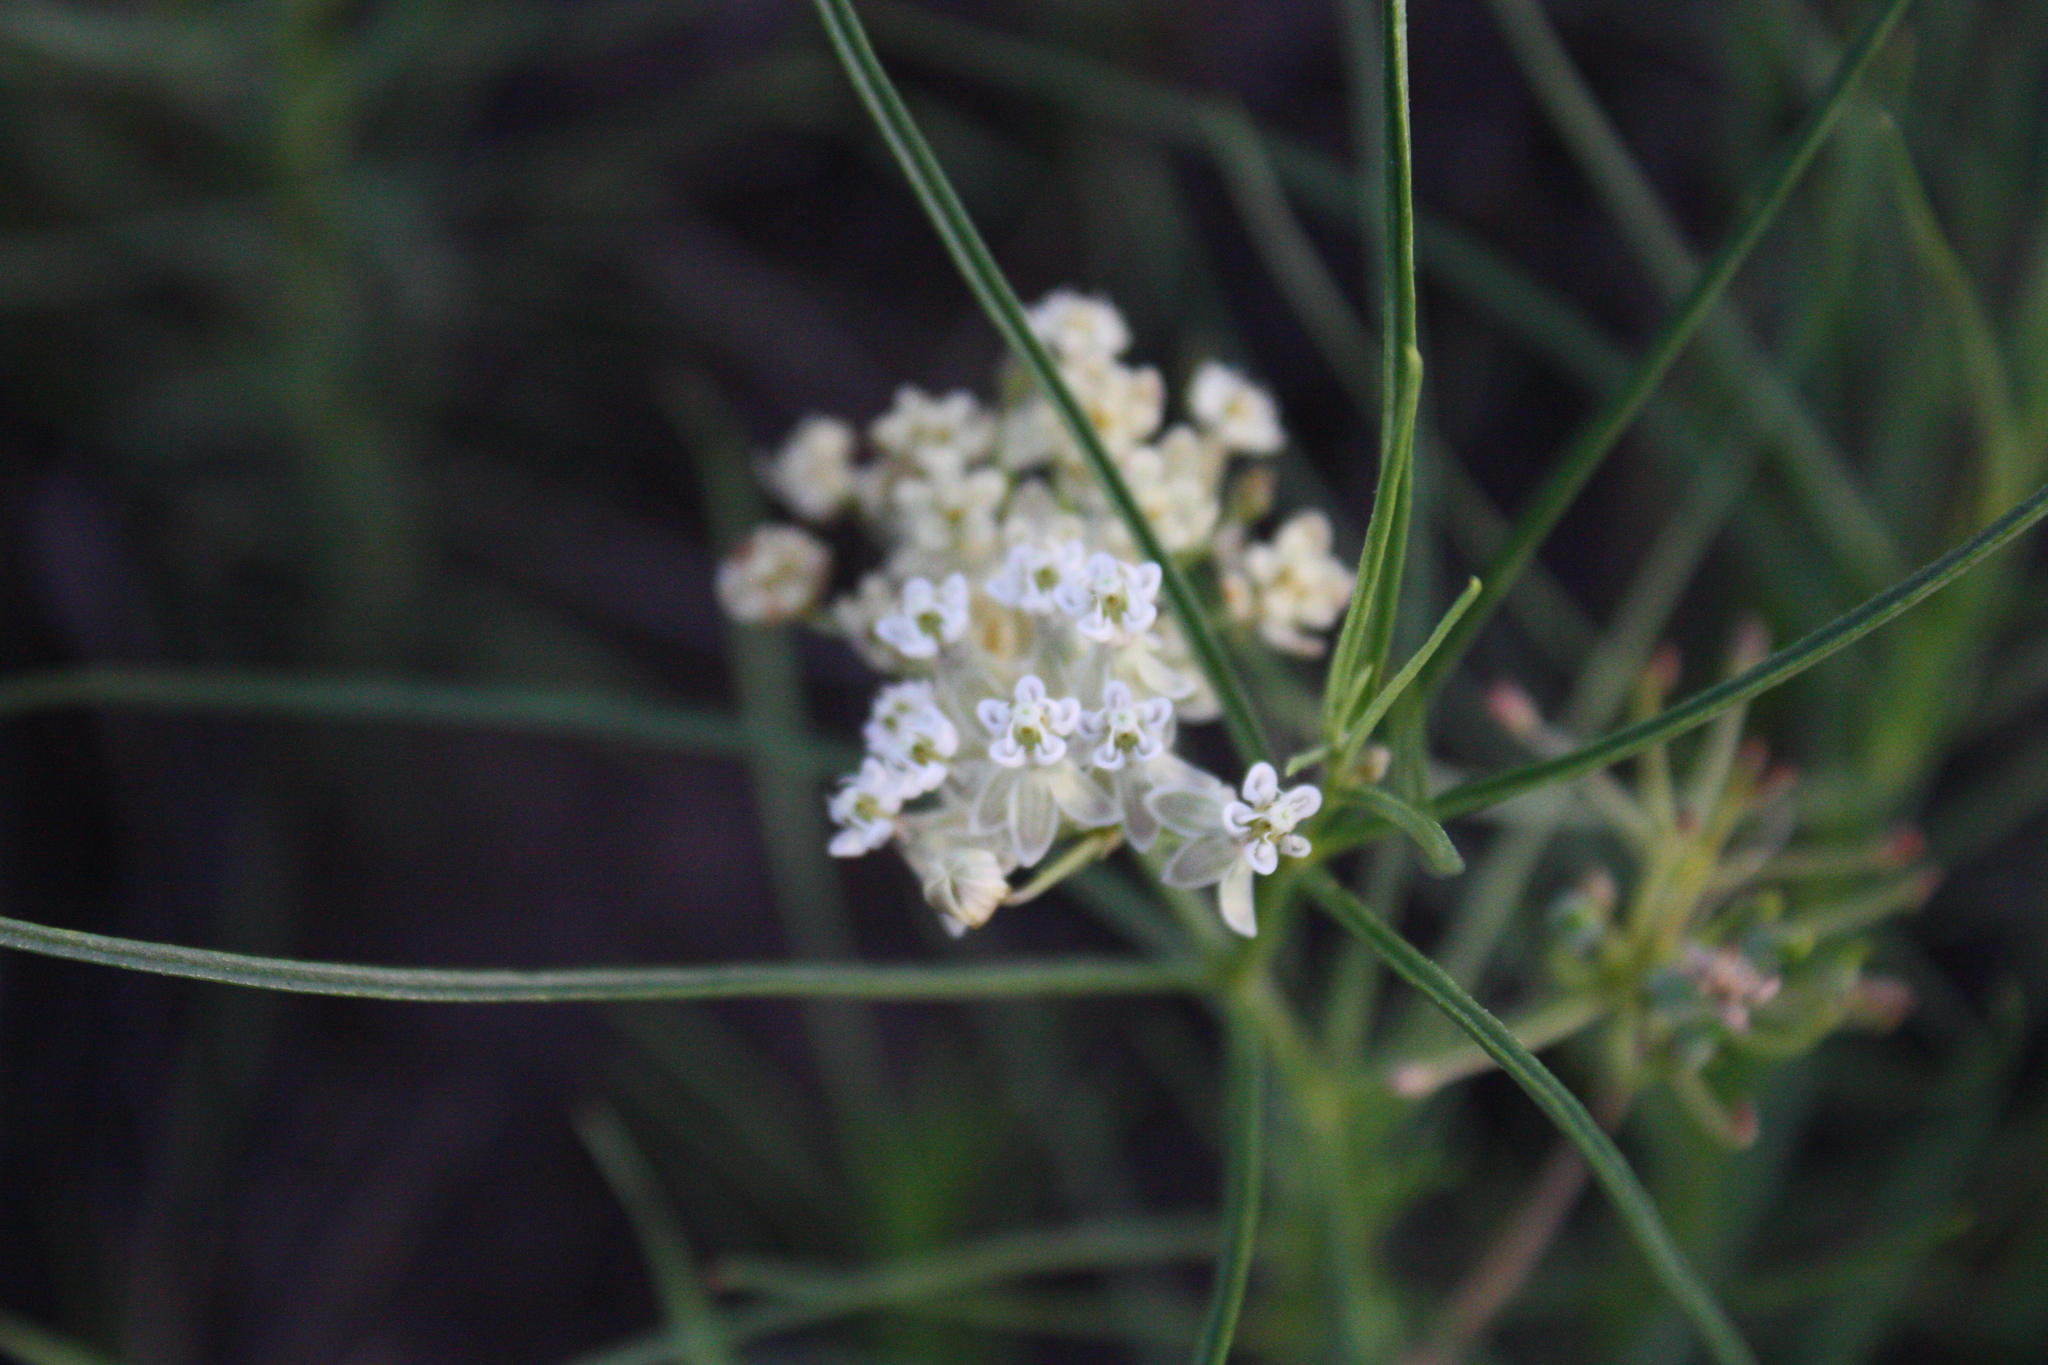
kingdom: Plantae
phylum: Tracheophyta
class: Magnoliopsida
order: Gentianales
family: Apocynaceae
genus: Asclepias
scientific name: Asclepias subverticillata
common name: Horsetail milkweed
